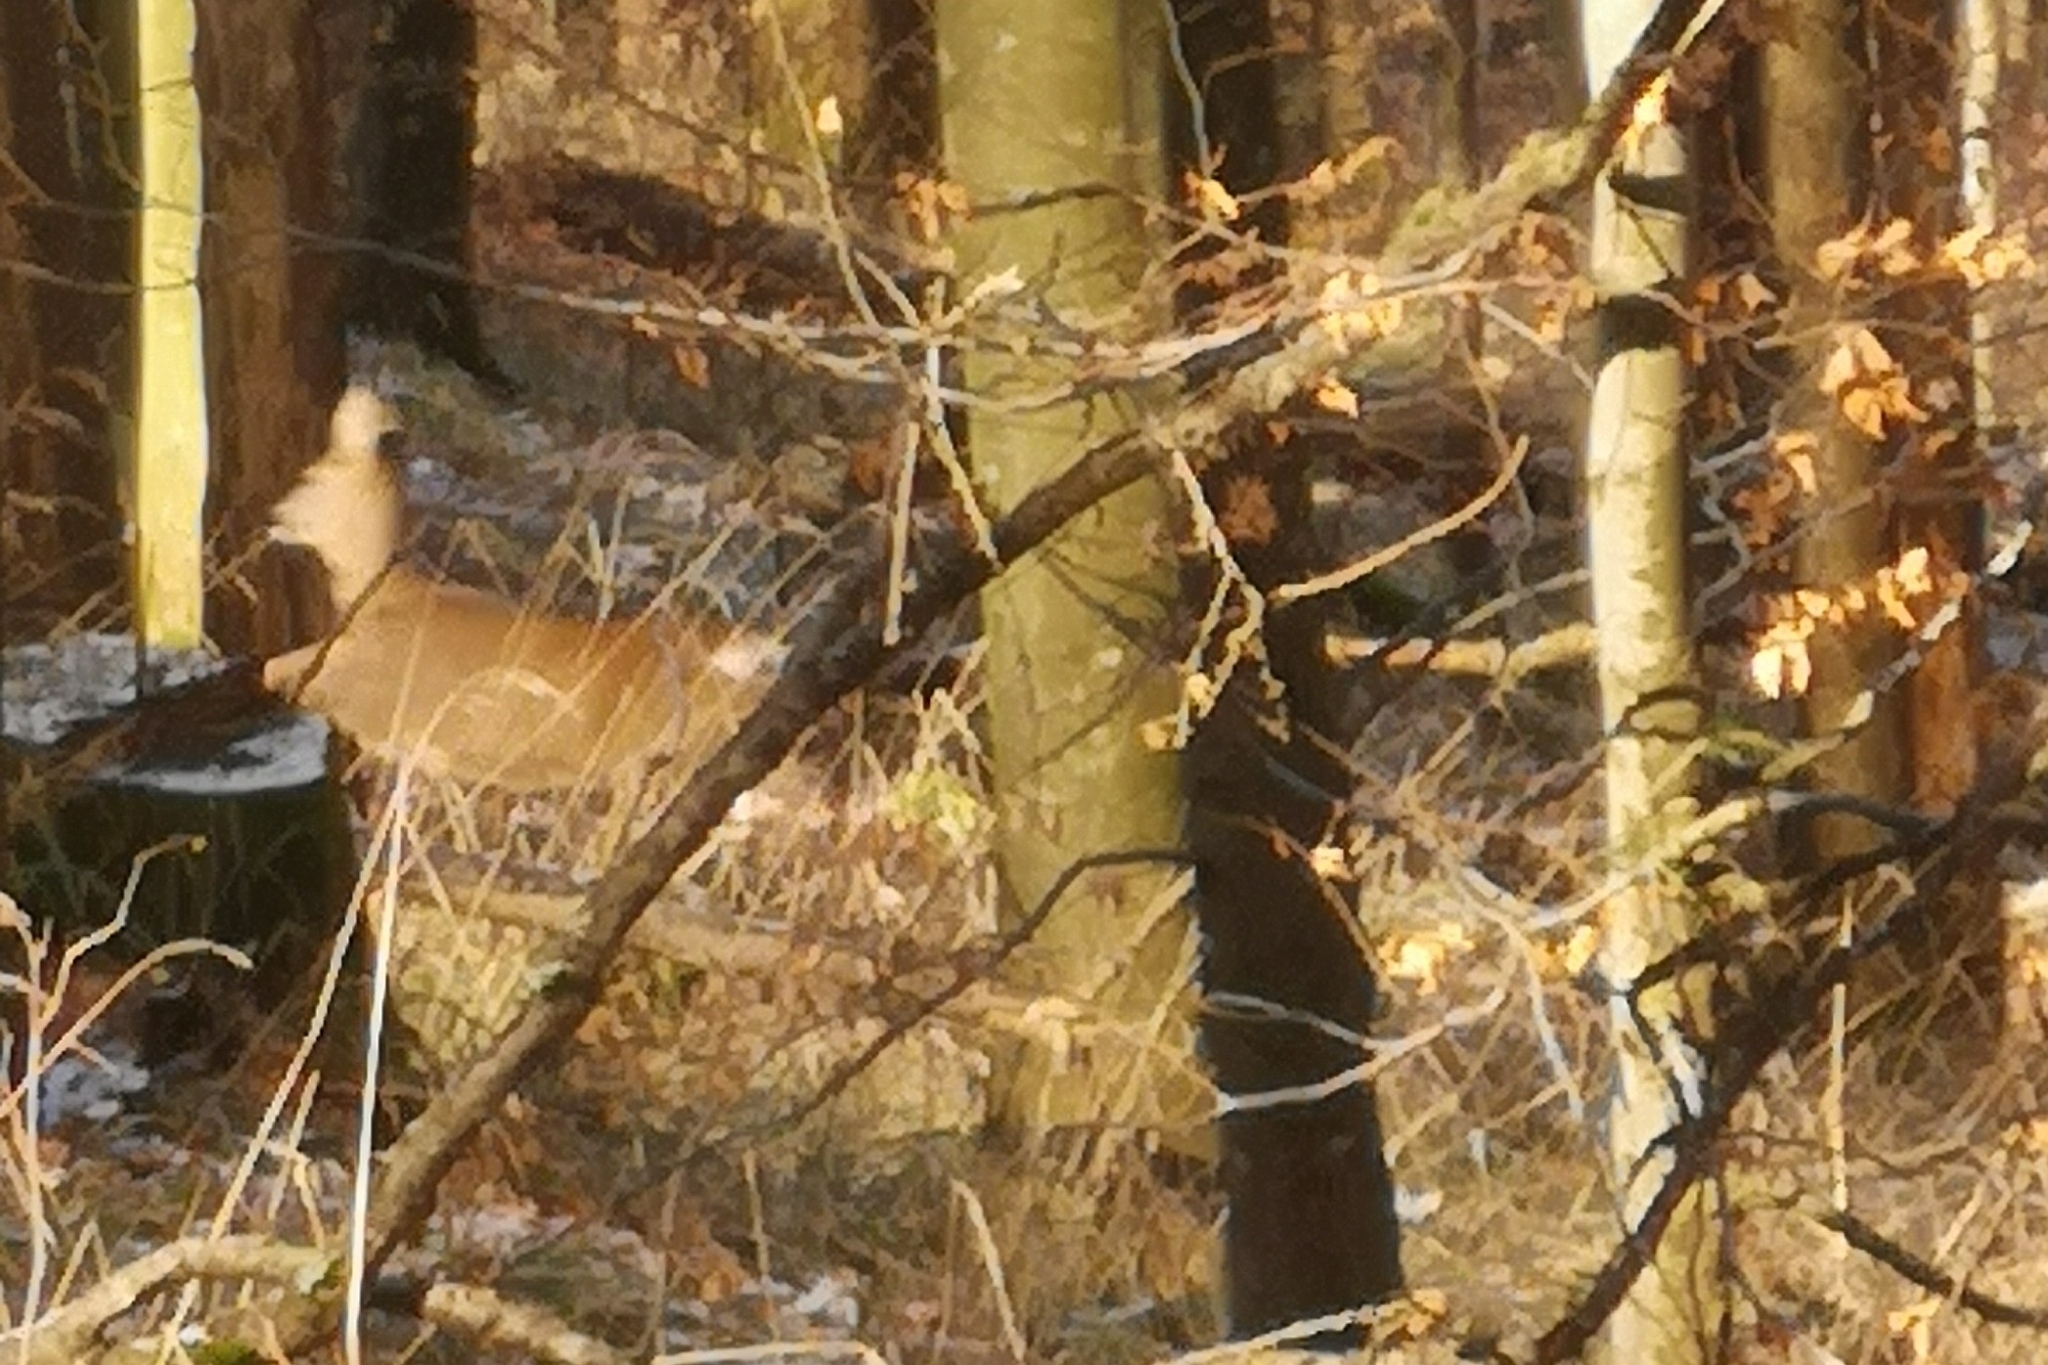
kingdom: Animalia
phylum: Chordata
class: Mammalia
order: Artiodactyla
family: Cervidae
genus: Capreolus
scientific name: Capreolus capreolus
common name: Western roe deer
